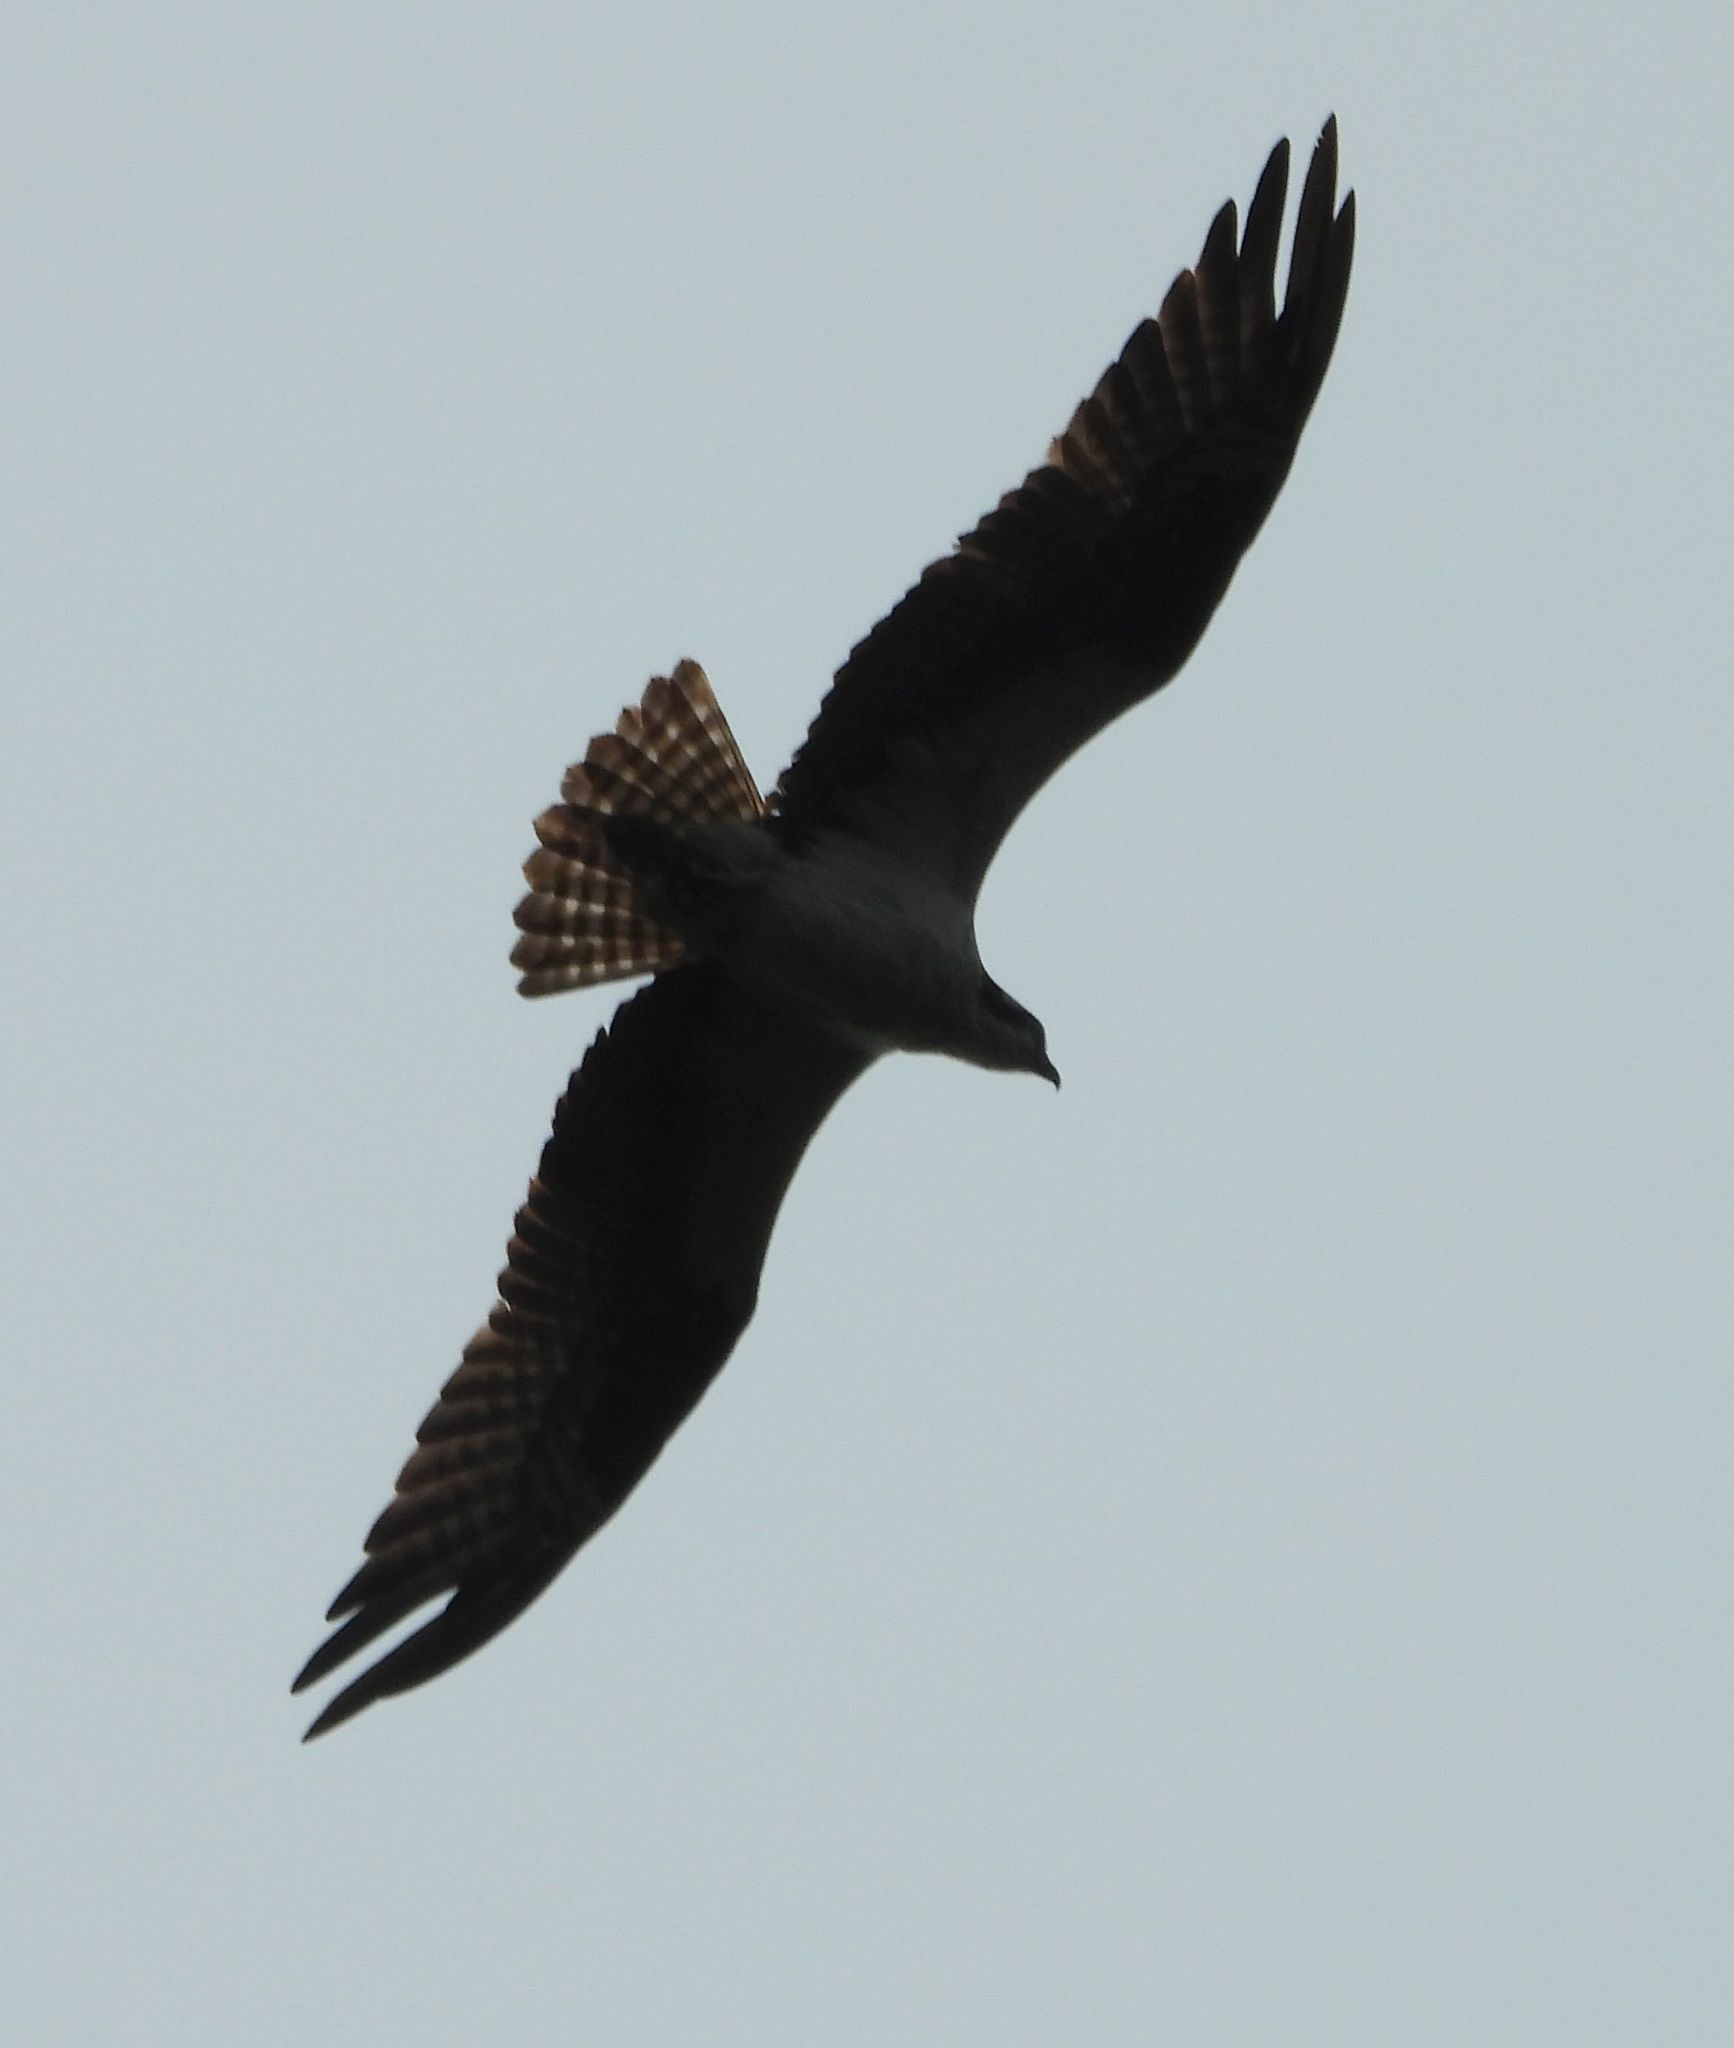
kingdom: Animalia
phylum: Chordata
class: Aves
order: Accipitriformes
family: Pandionidae
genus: Pandion
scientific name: Pandion haliaetus
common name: Osprey
